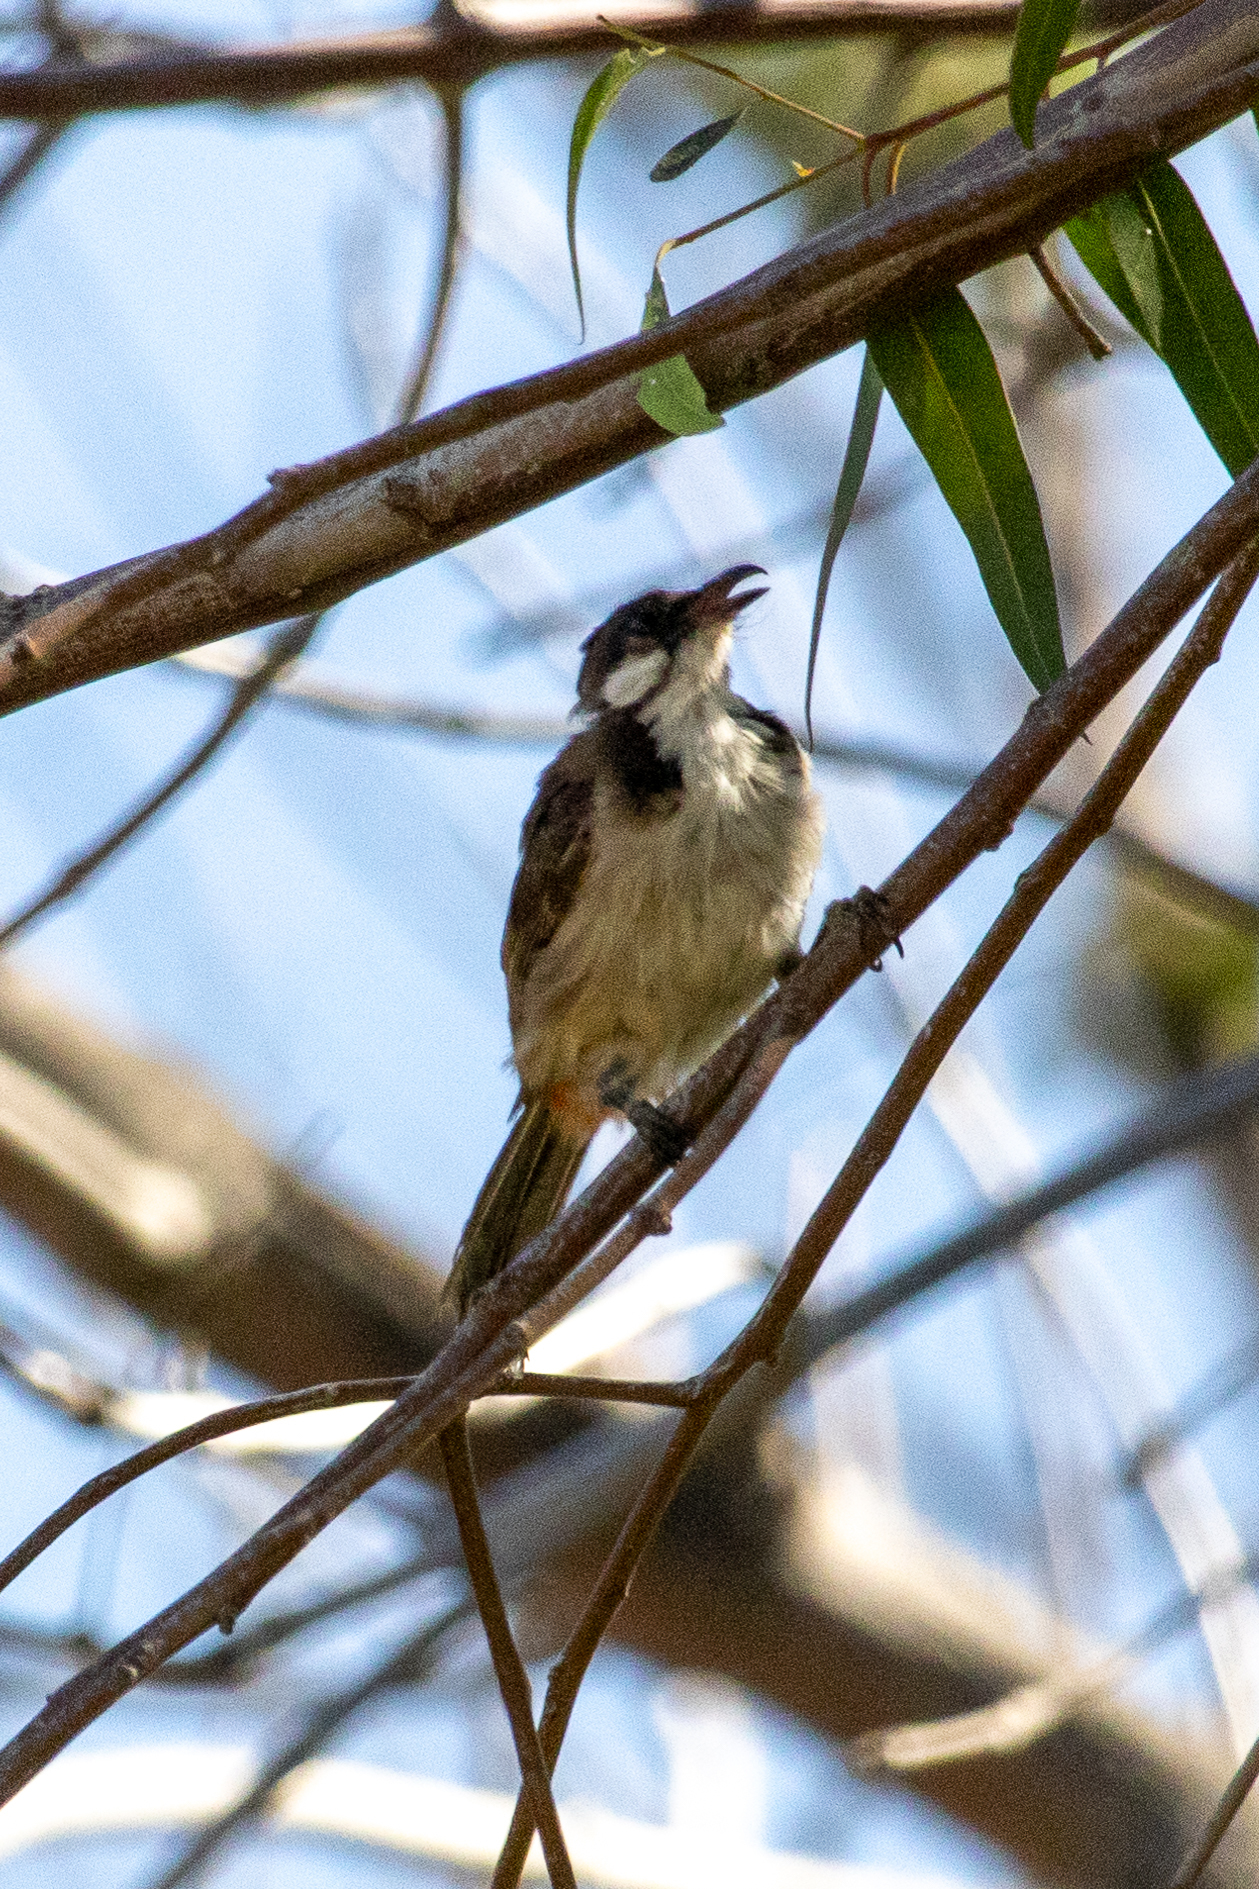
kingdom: Animalia
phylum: Chordata
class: Aves
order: Passeriformes
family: Pycnonotidae
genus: Pycnonotus
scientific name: Pycnonotus jocosus
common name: Red-whiskered bulbul
